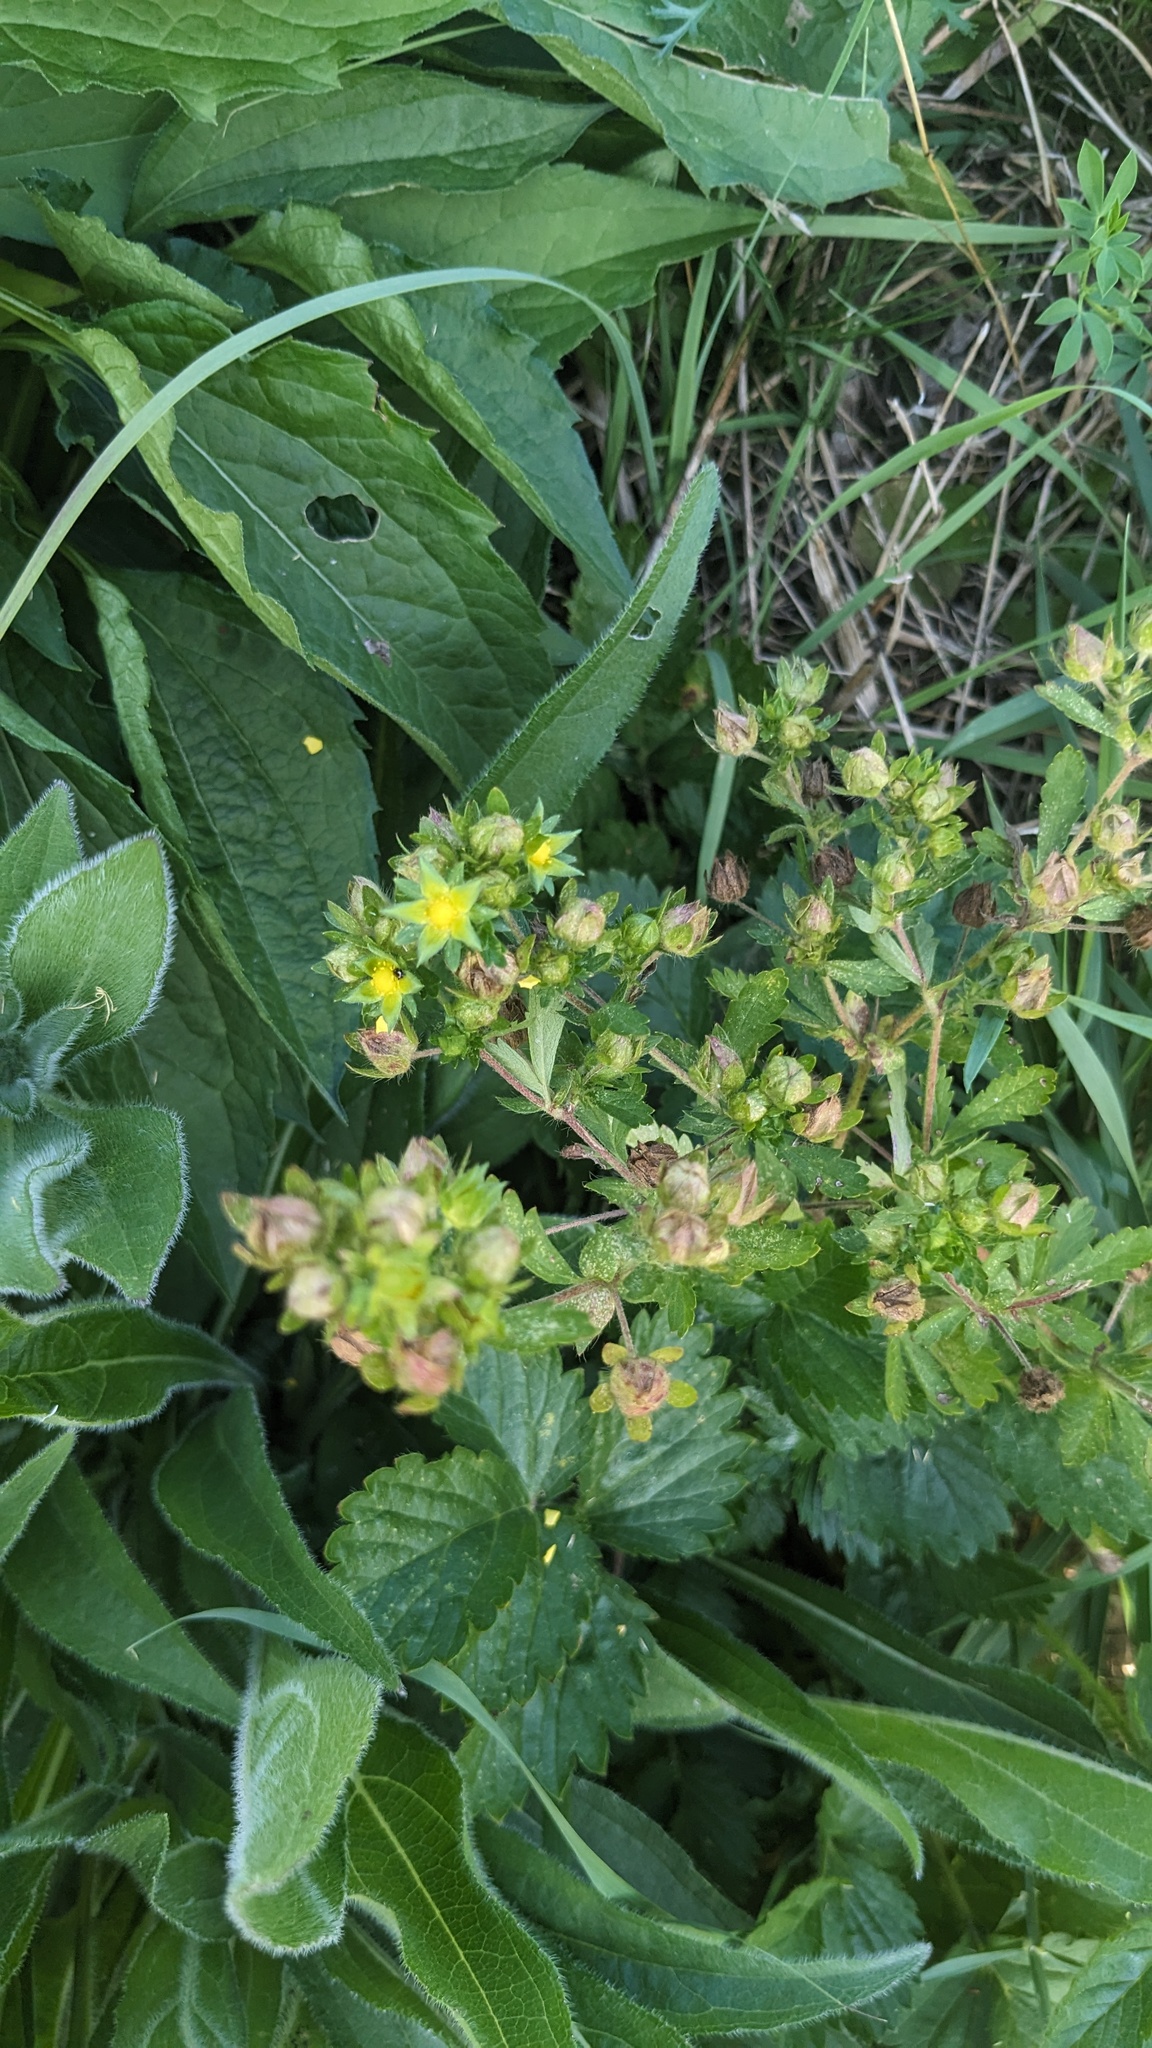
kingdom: Plantae
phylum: Tracheophyta
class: Magnoliopsida
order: Rosales
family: Rosaceae
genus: Potentilla
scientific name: Potentilla norvegica
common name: Ternate-leaved cinquefoil
